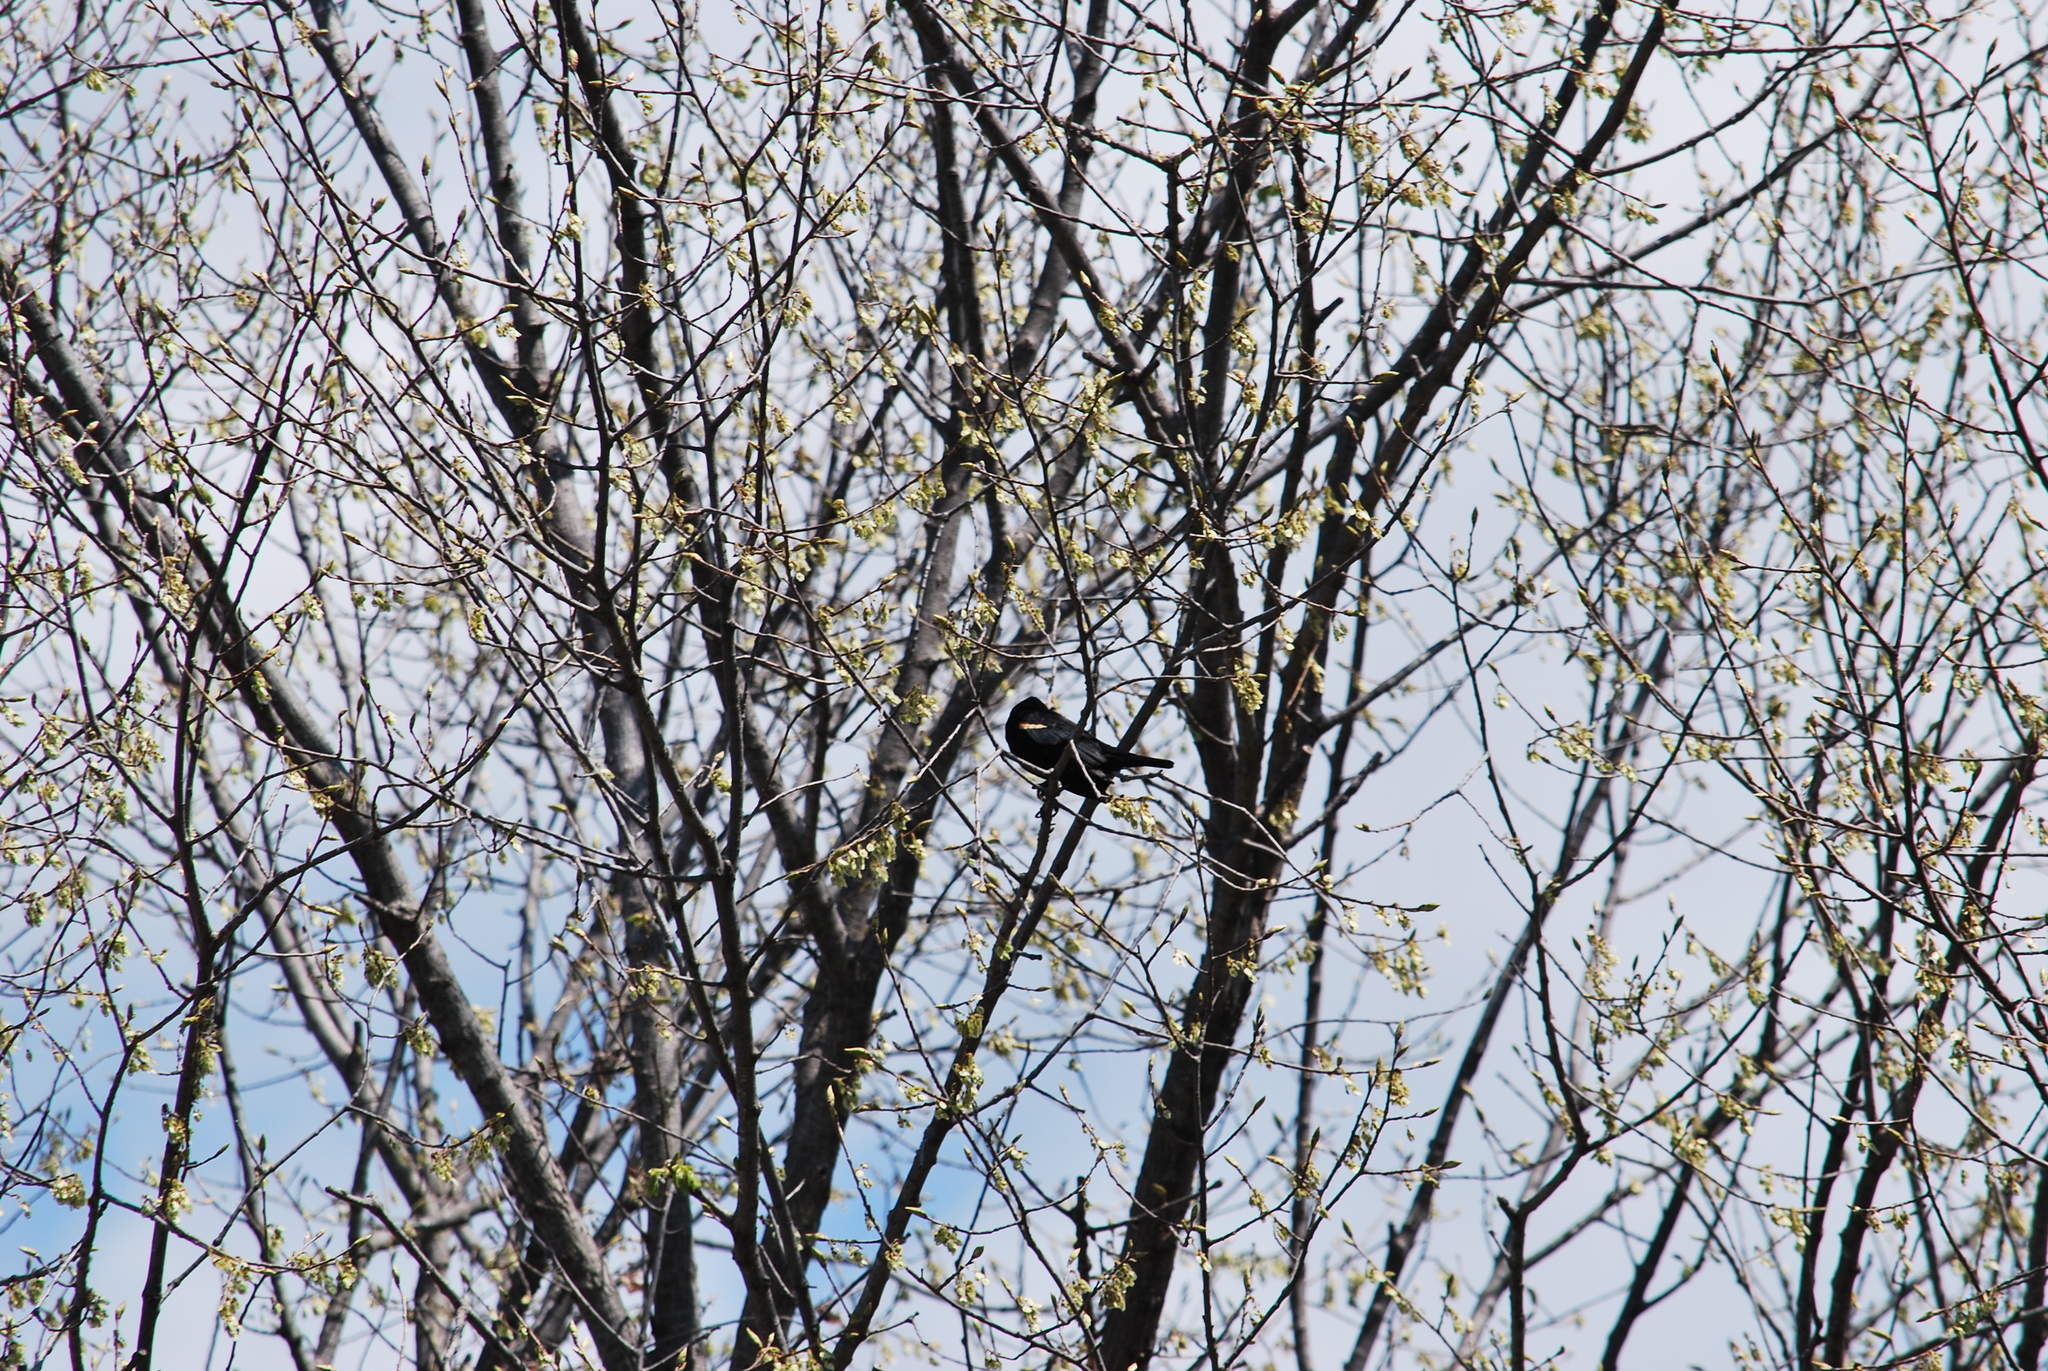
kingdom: Animalia
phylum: Chordata
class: Aves
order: Passeriformes
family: Icteridae
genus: Agelaius
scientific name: Agelaius phoeniceus
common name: Red-winged blackbird
